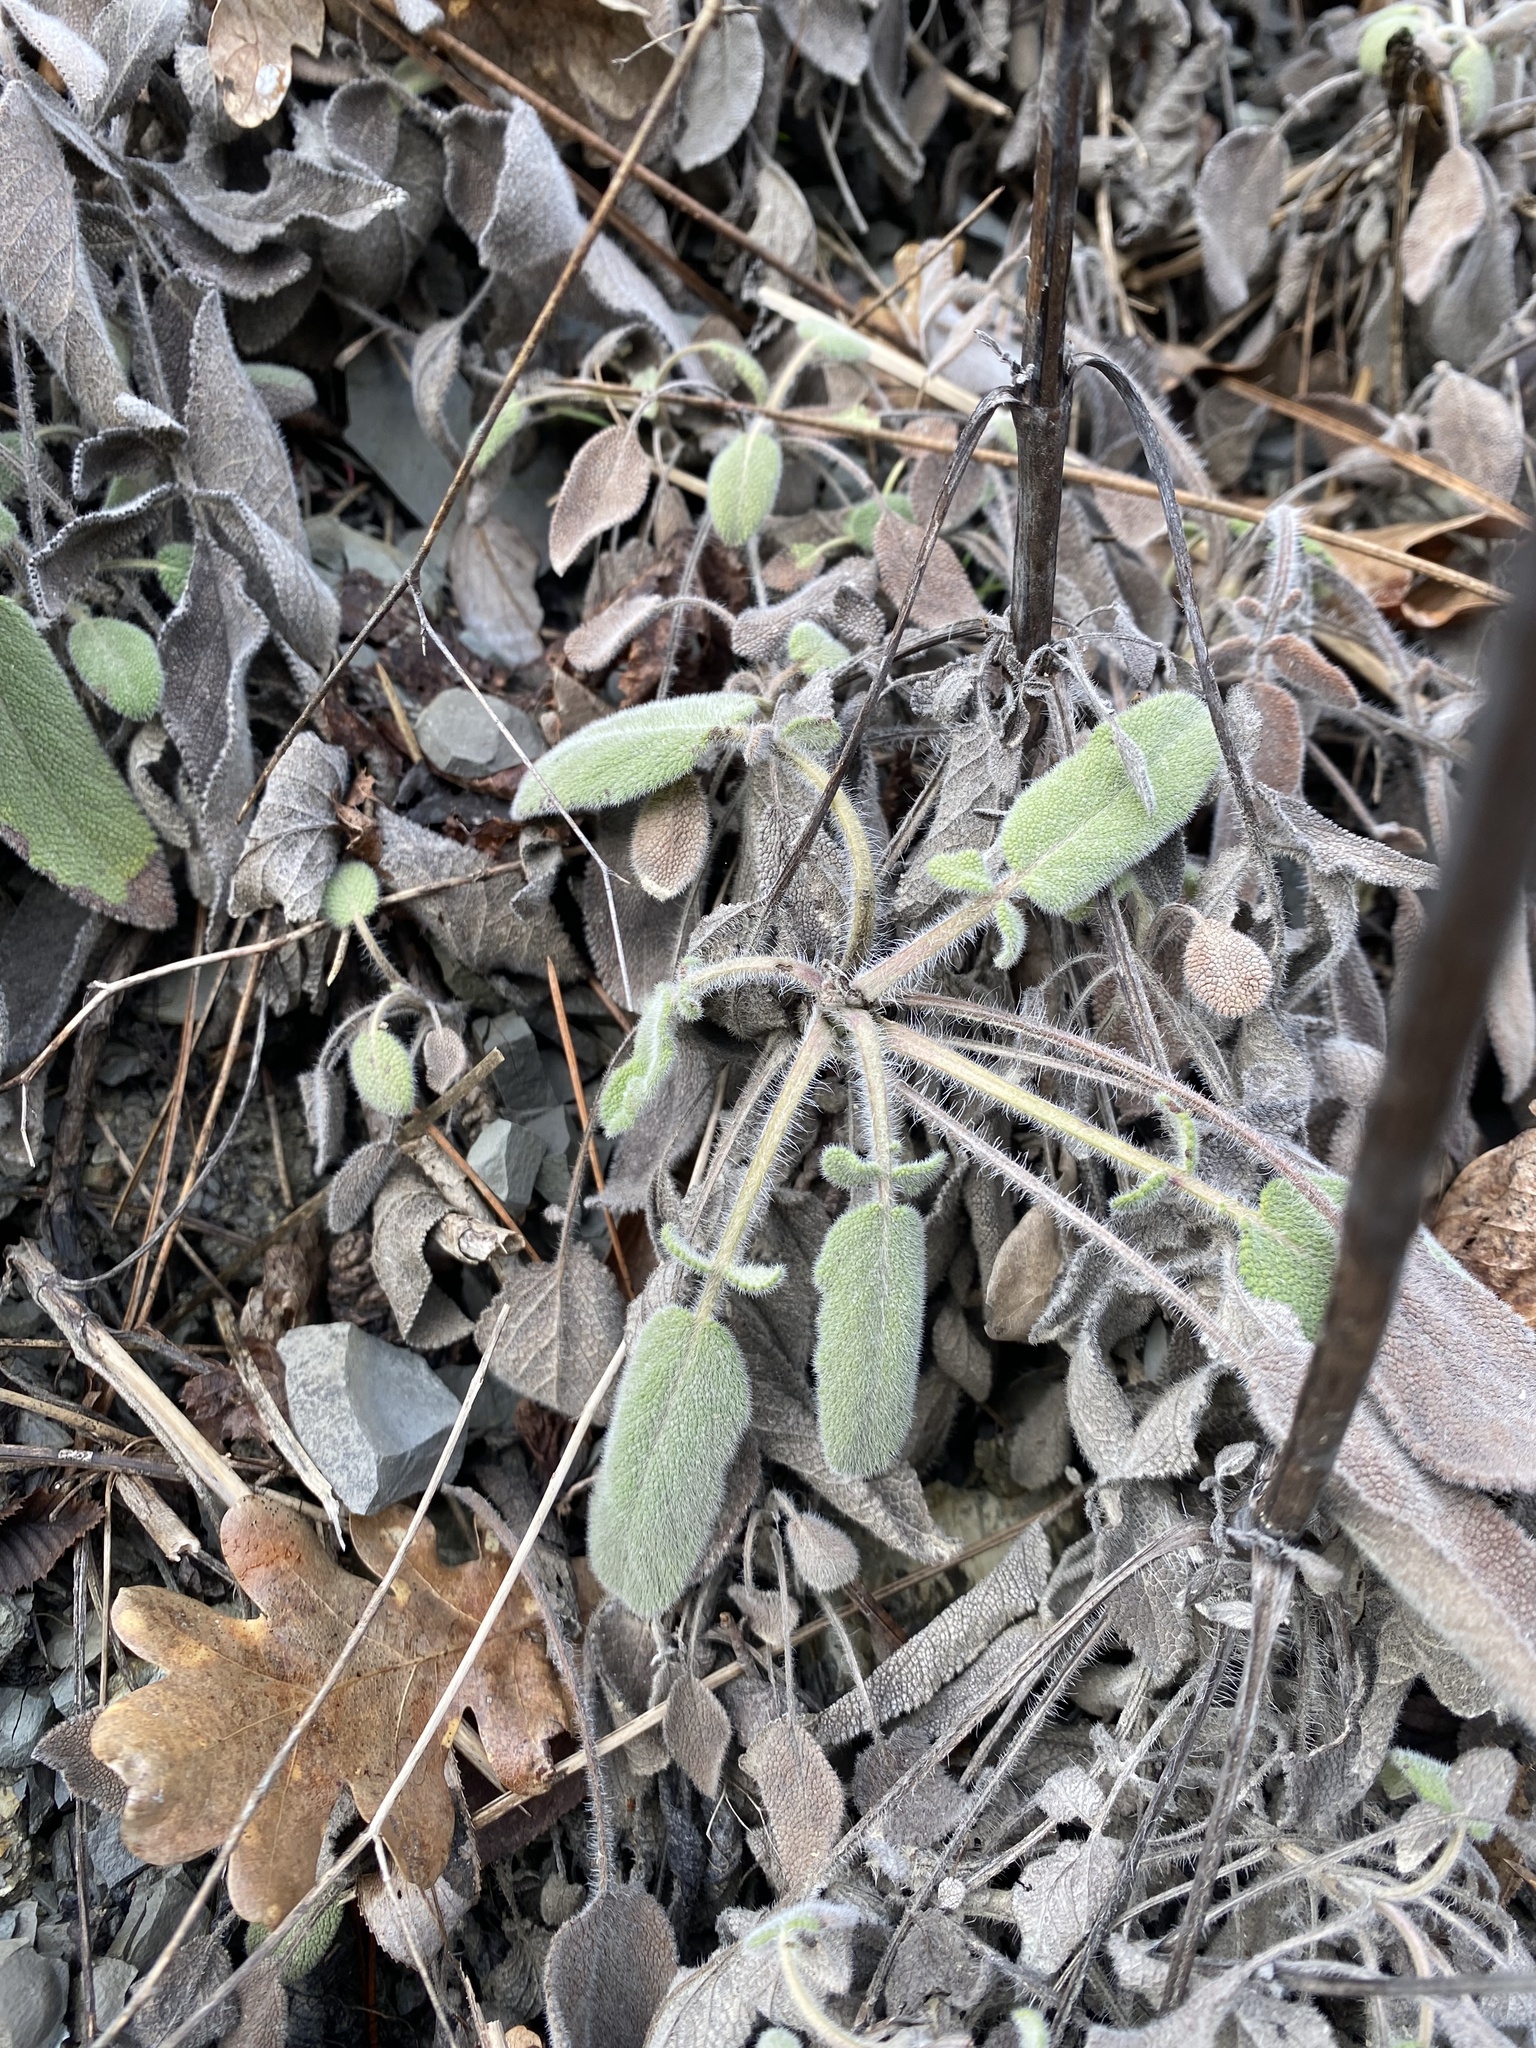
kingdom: Plantae
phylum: Tracheophyta
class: Magnoliopsida
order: Lamiales
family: Lamiaceae
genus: Salvia
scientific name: Salvia ringens
